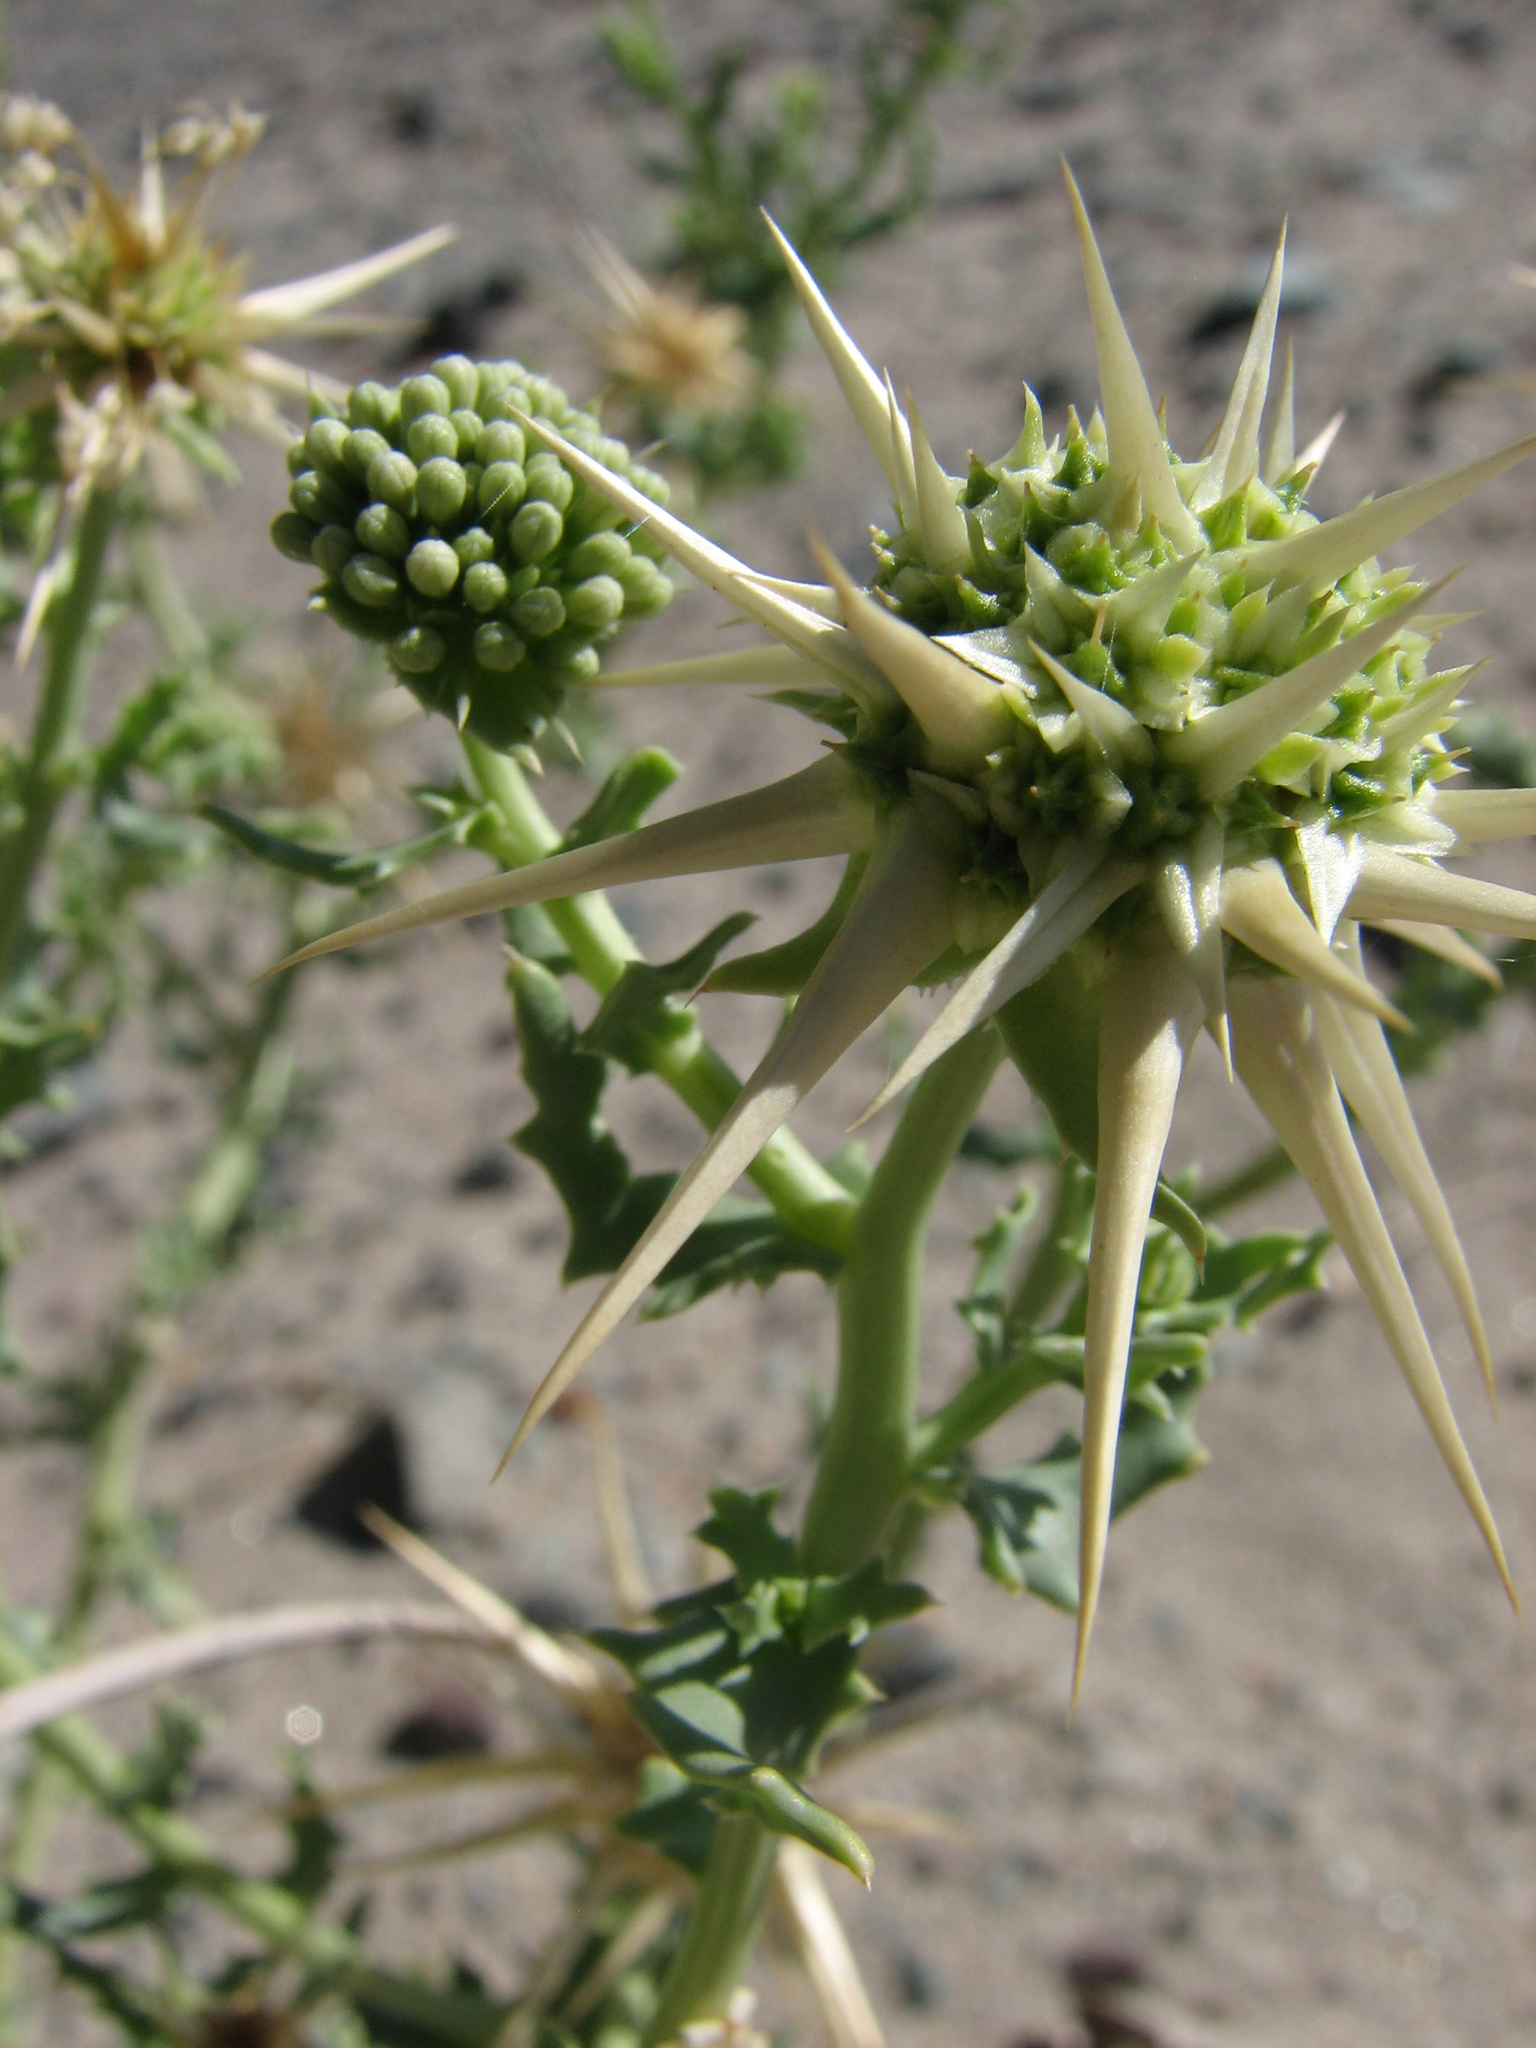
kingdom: Plantae
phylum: Tracheophyta
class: Magnoliopsida
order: Asterales
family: Calyceraceae
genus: Calycera
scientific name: Calycera calcitrapa
